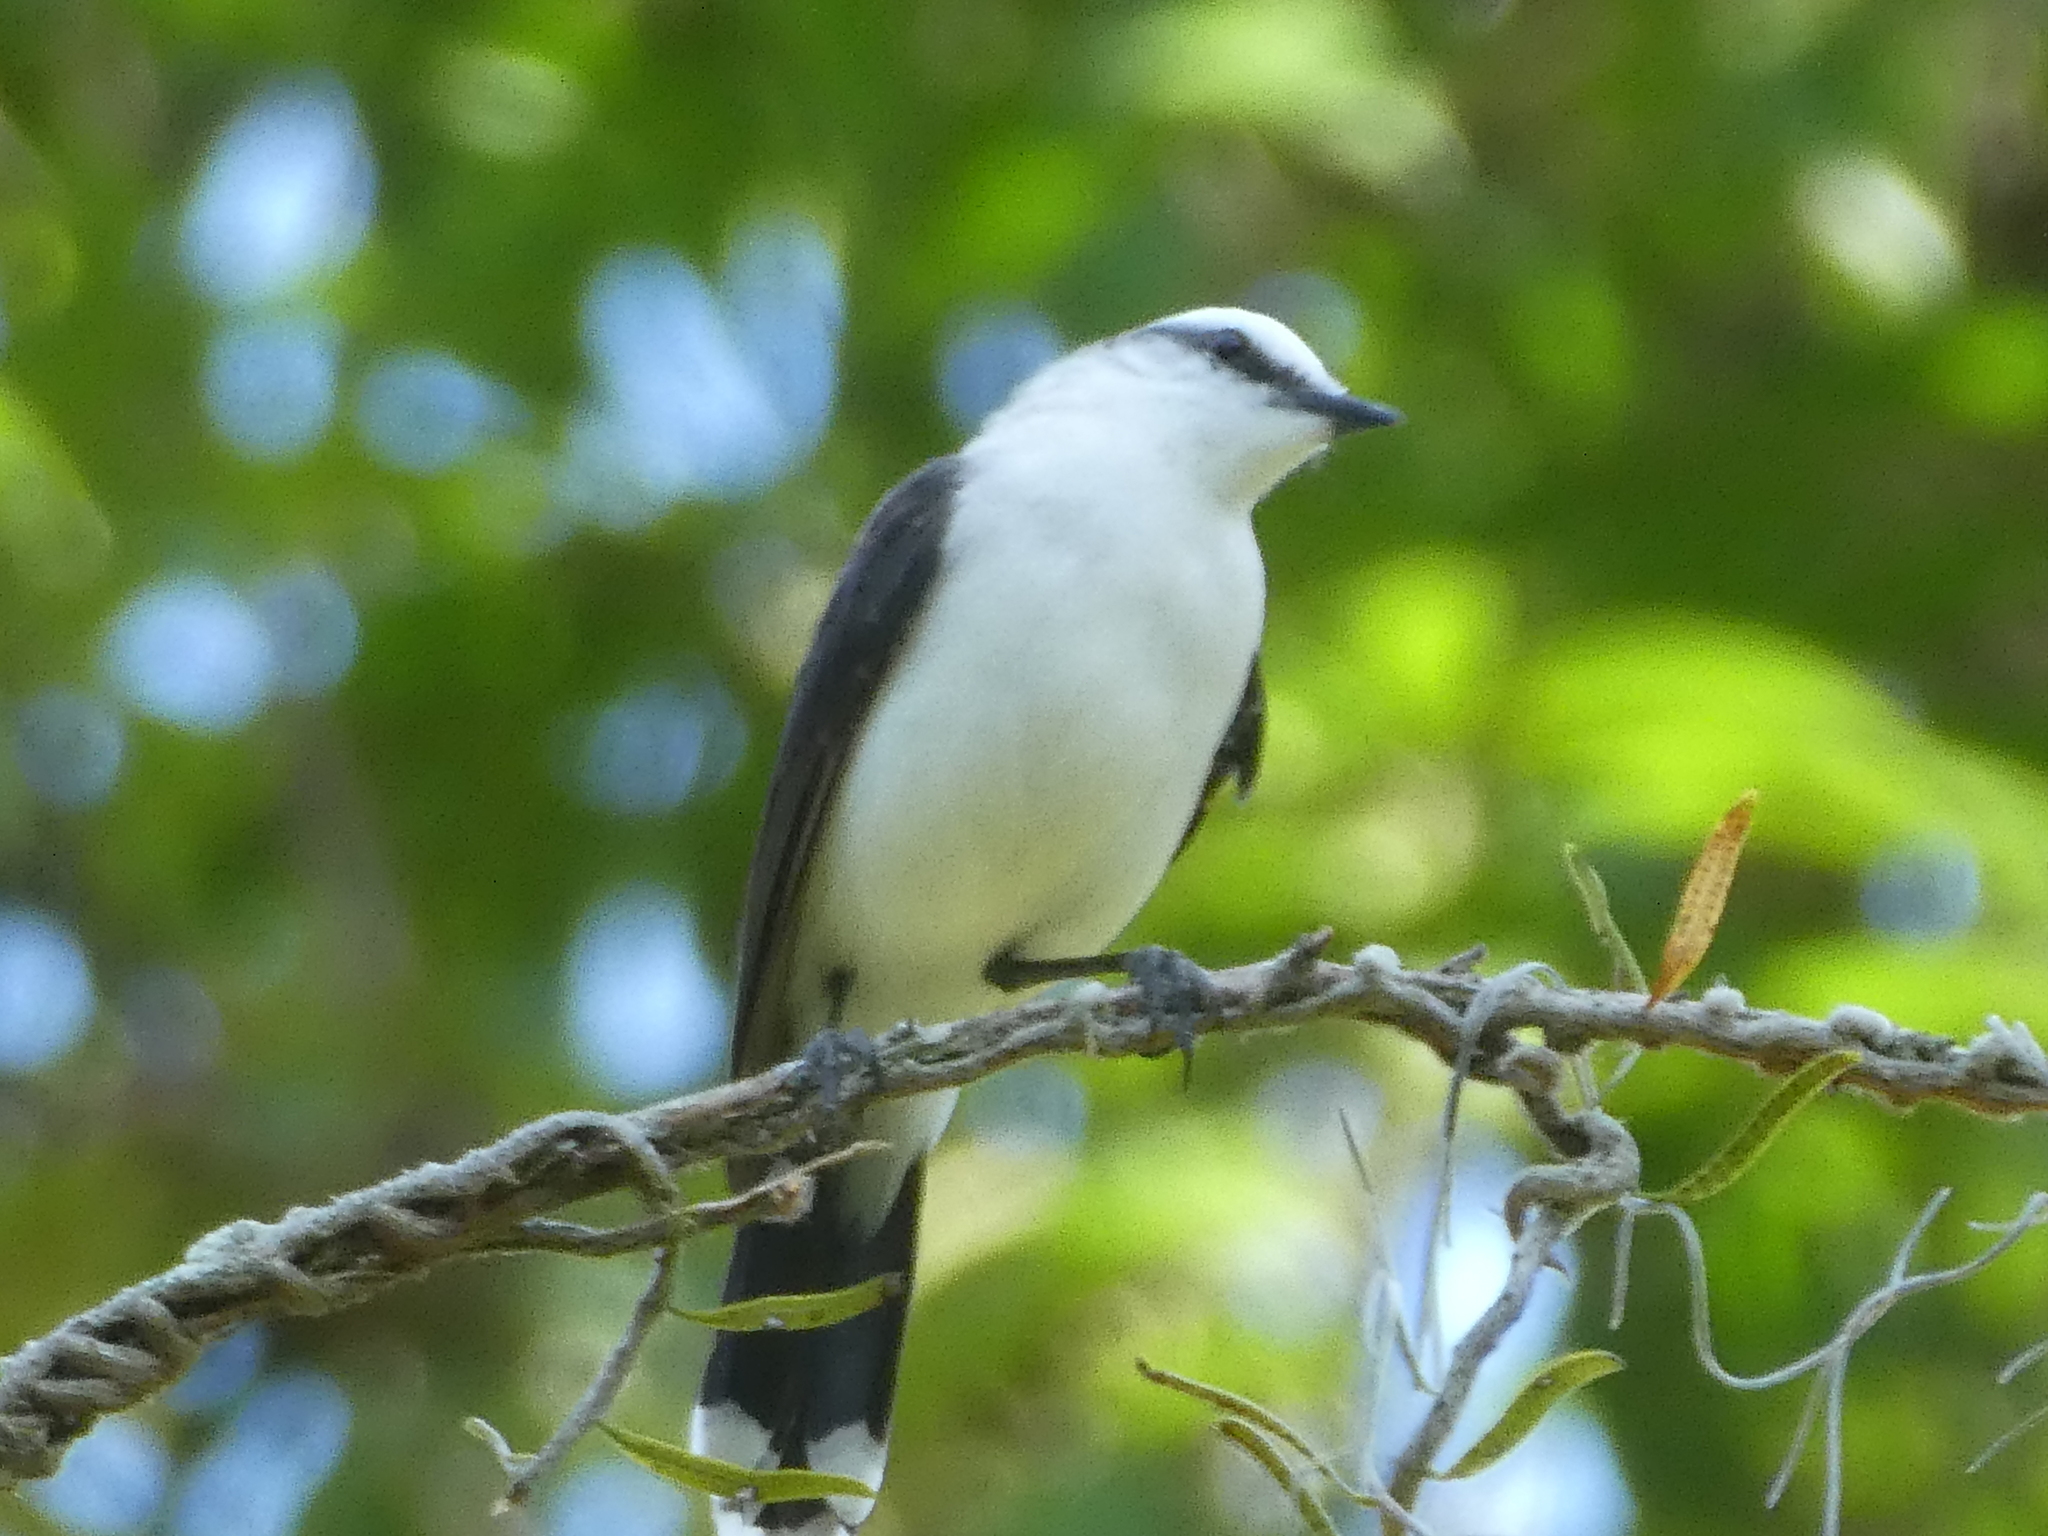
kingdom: Animalia
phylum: Chordata
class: Aves
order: Passeriformes
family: Tyrannidae
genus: Fluvicola
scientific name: Fluvicola nengeta
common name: Masked water tyrant
